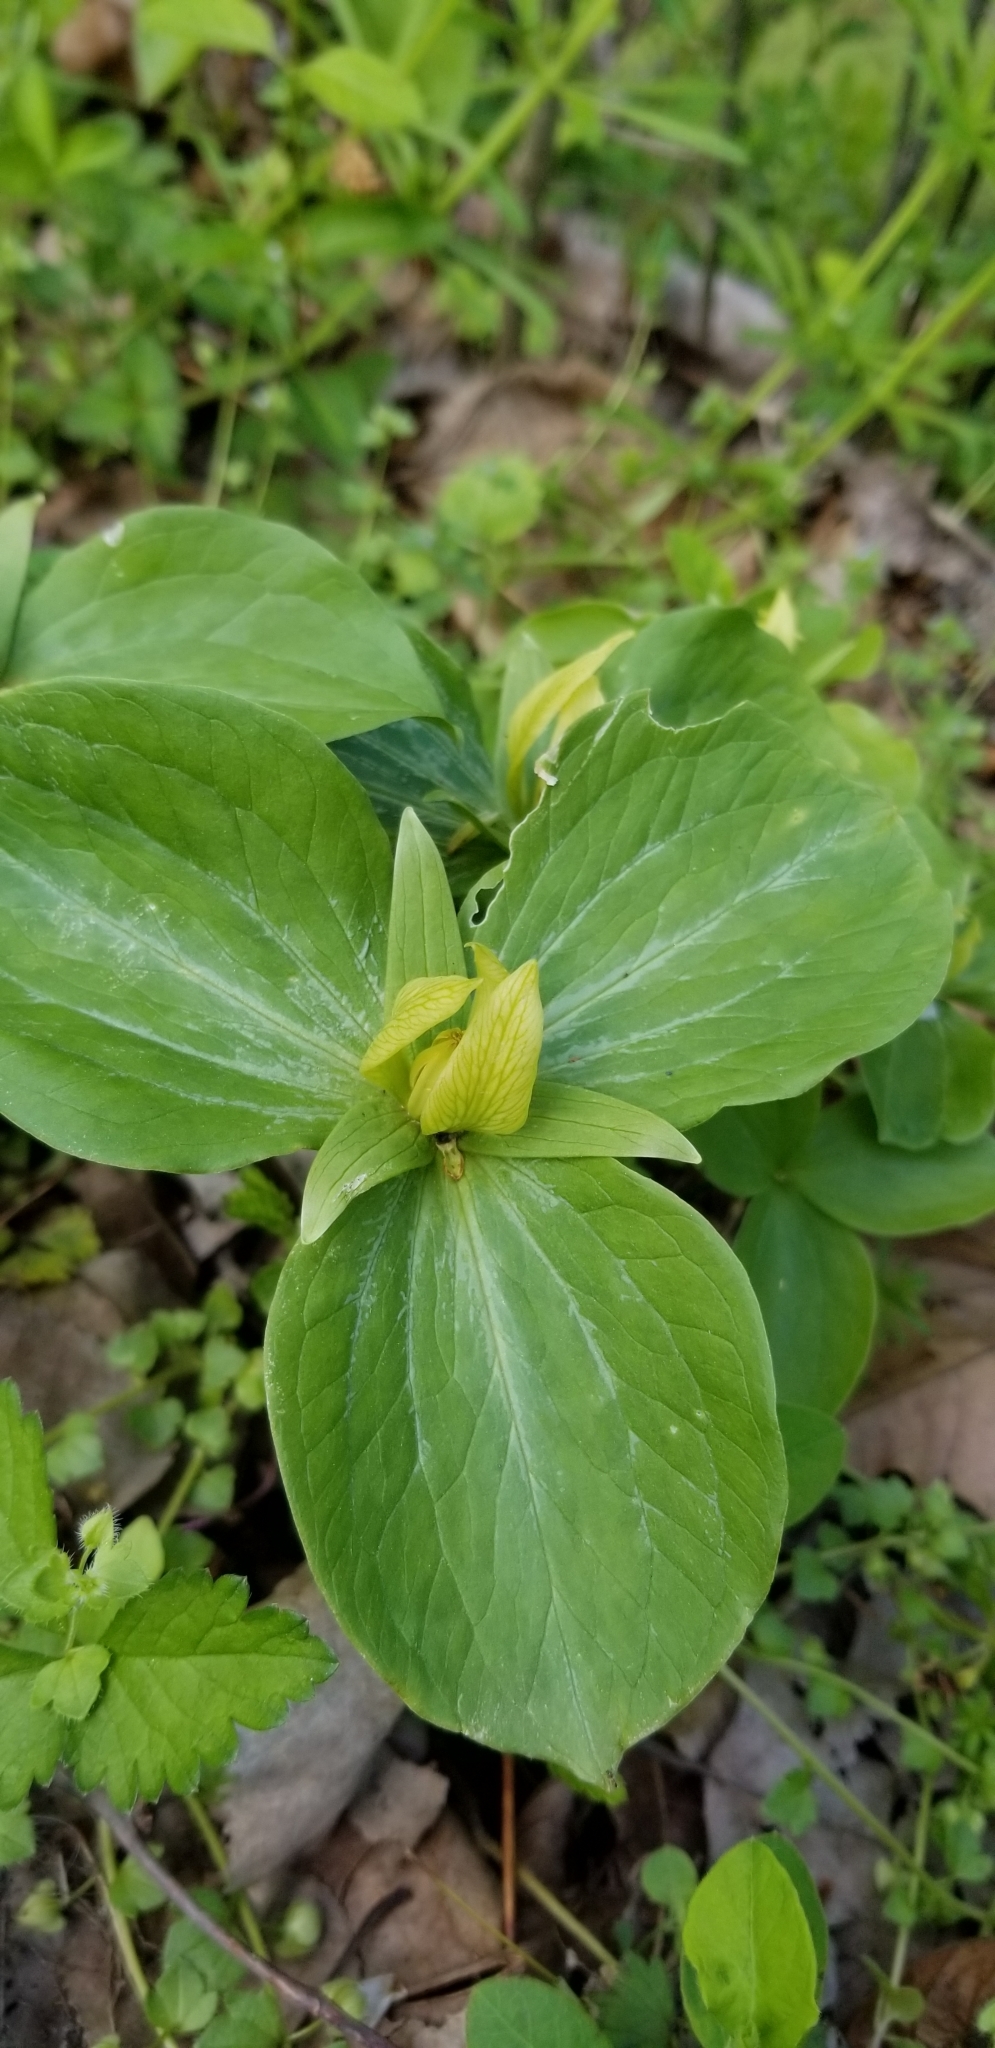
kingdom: Plantae
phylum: Tracheophyta
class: Liliopsida
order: Liliales
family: Melanthiaceae
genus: Trillium
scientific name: Trillium sessile
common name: Sessile trillium
